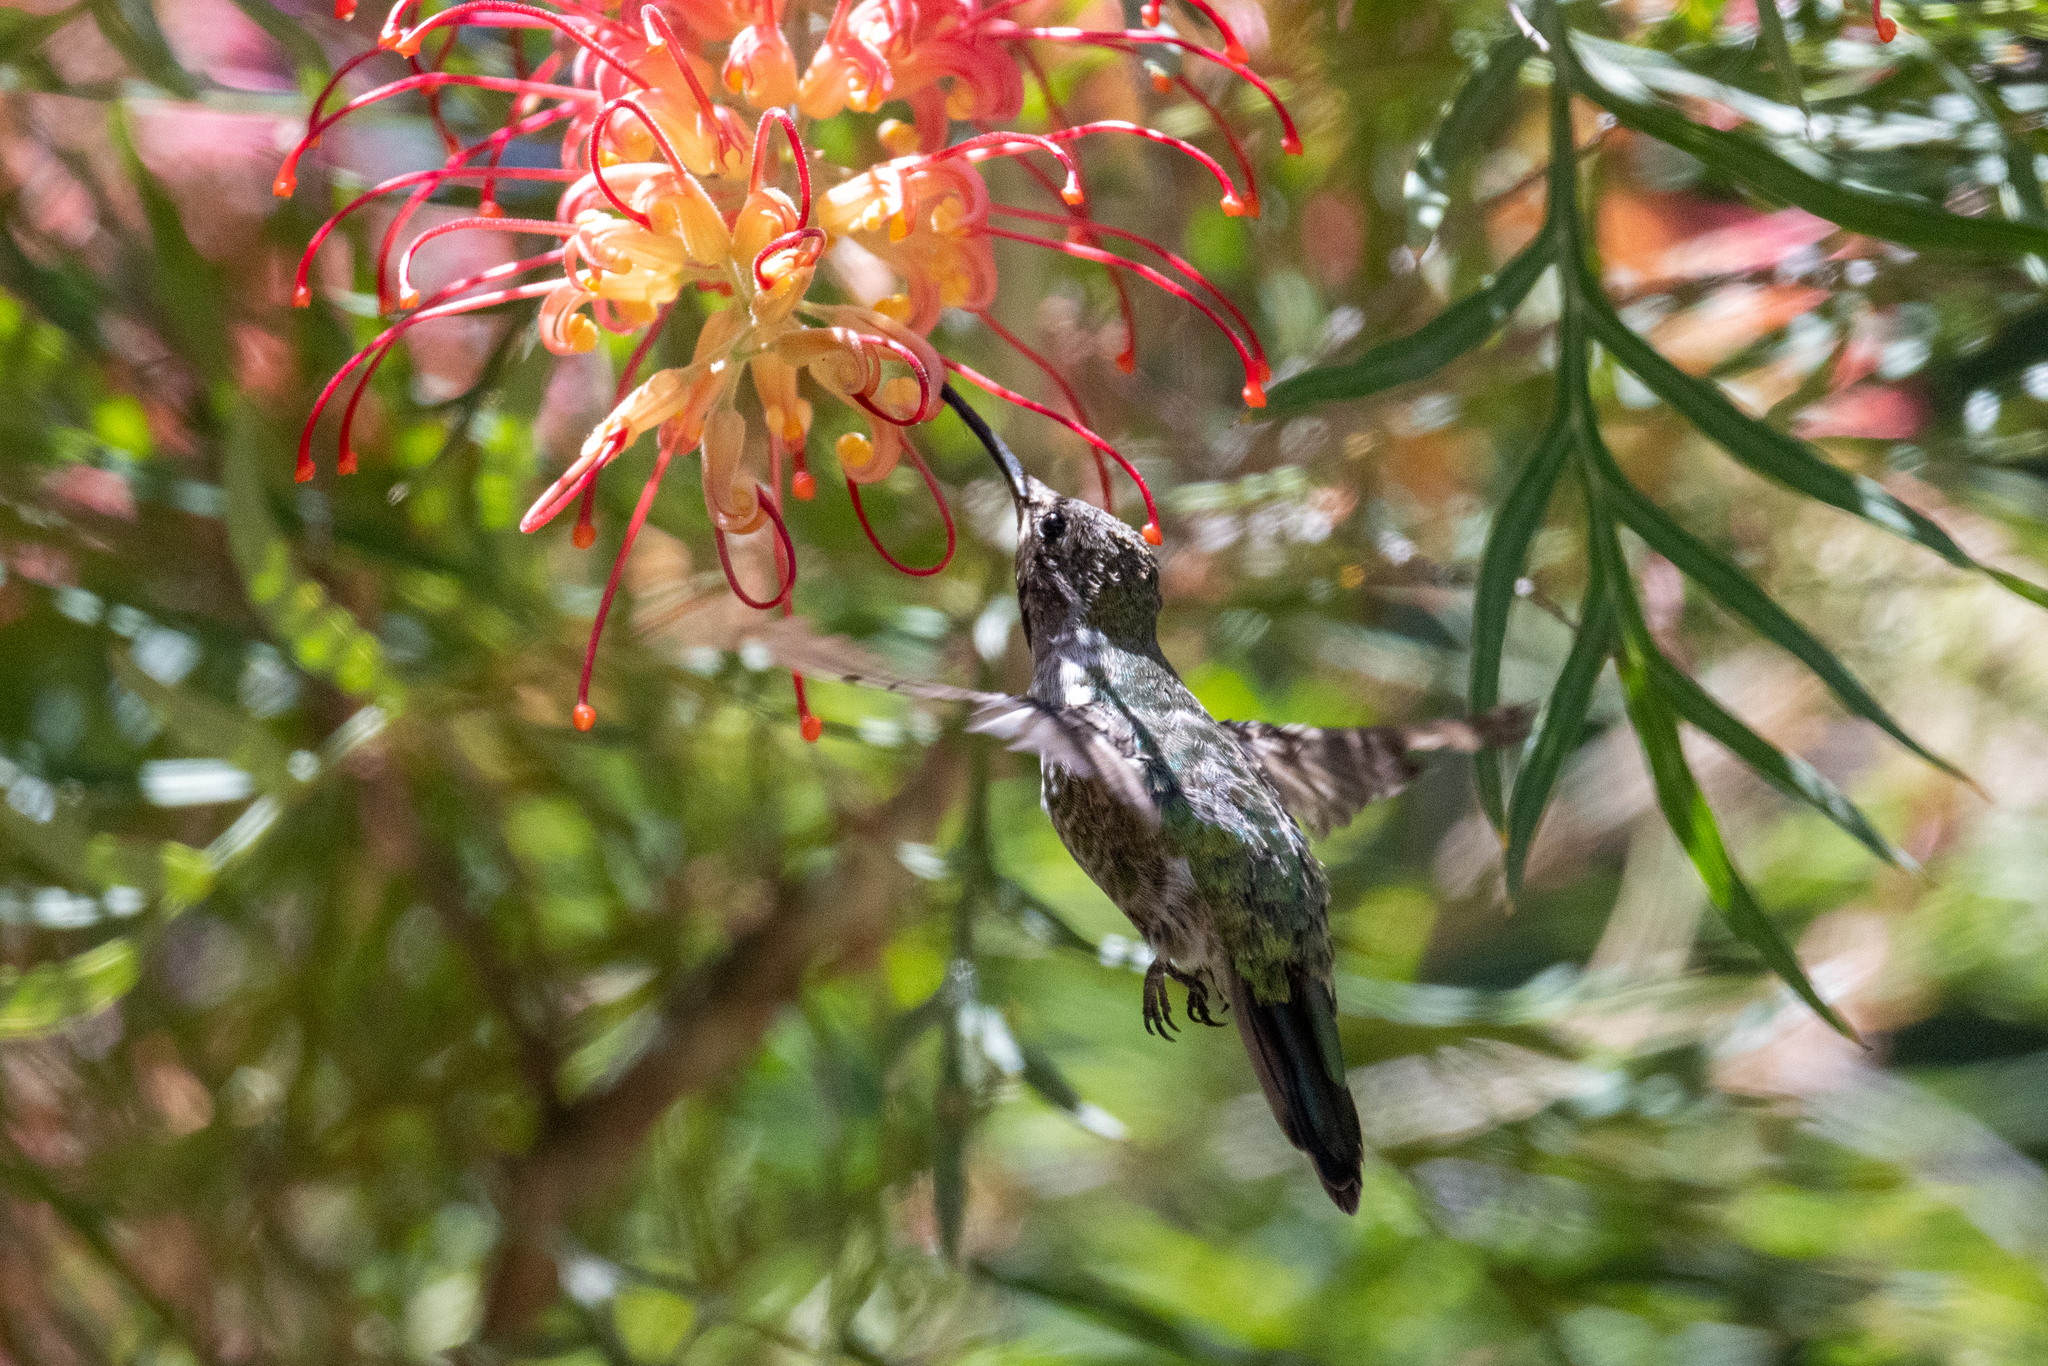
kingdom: Animalia
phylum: Chordata
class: Aves
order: Apodiformes
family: Trochilidae
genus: Calypte
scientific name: Calypte anna
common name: Anna's hummingbird
